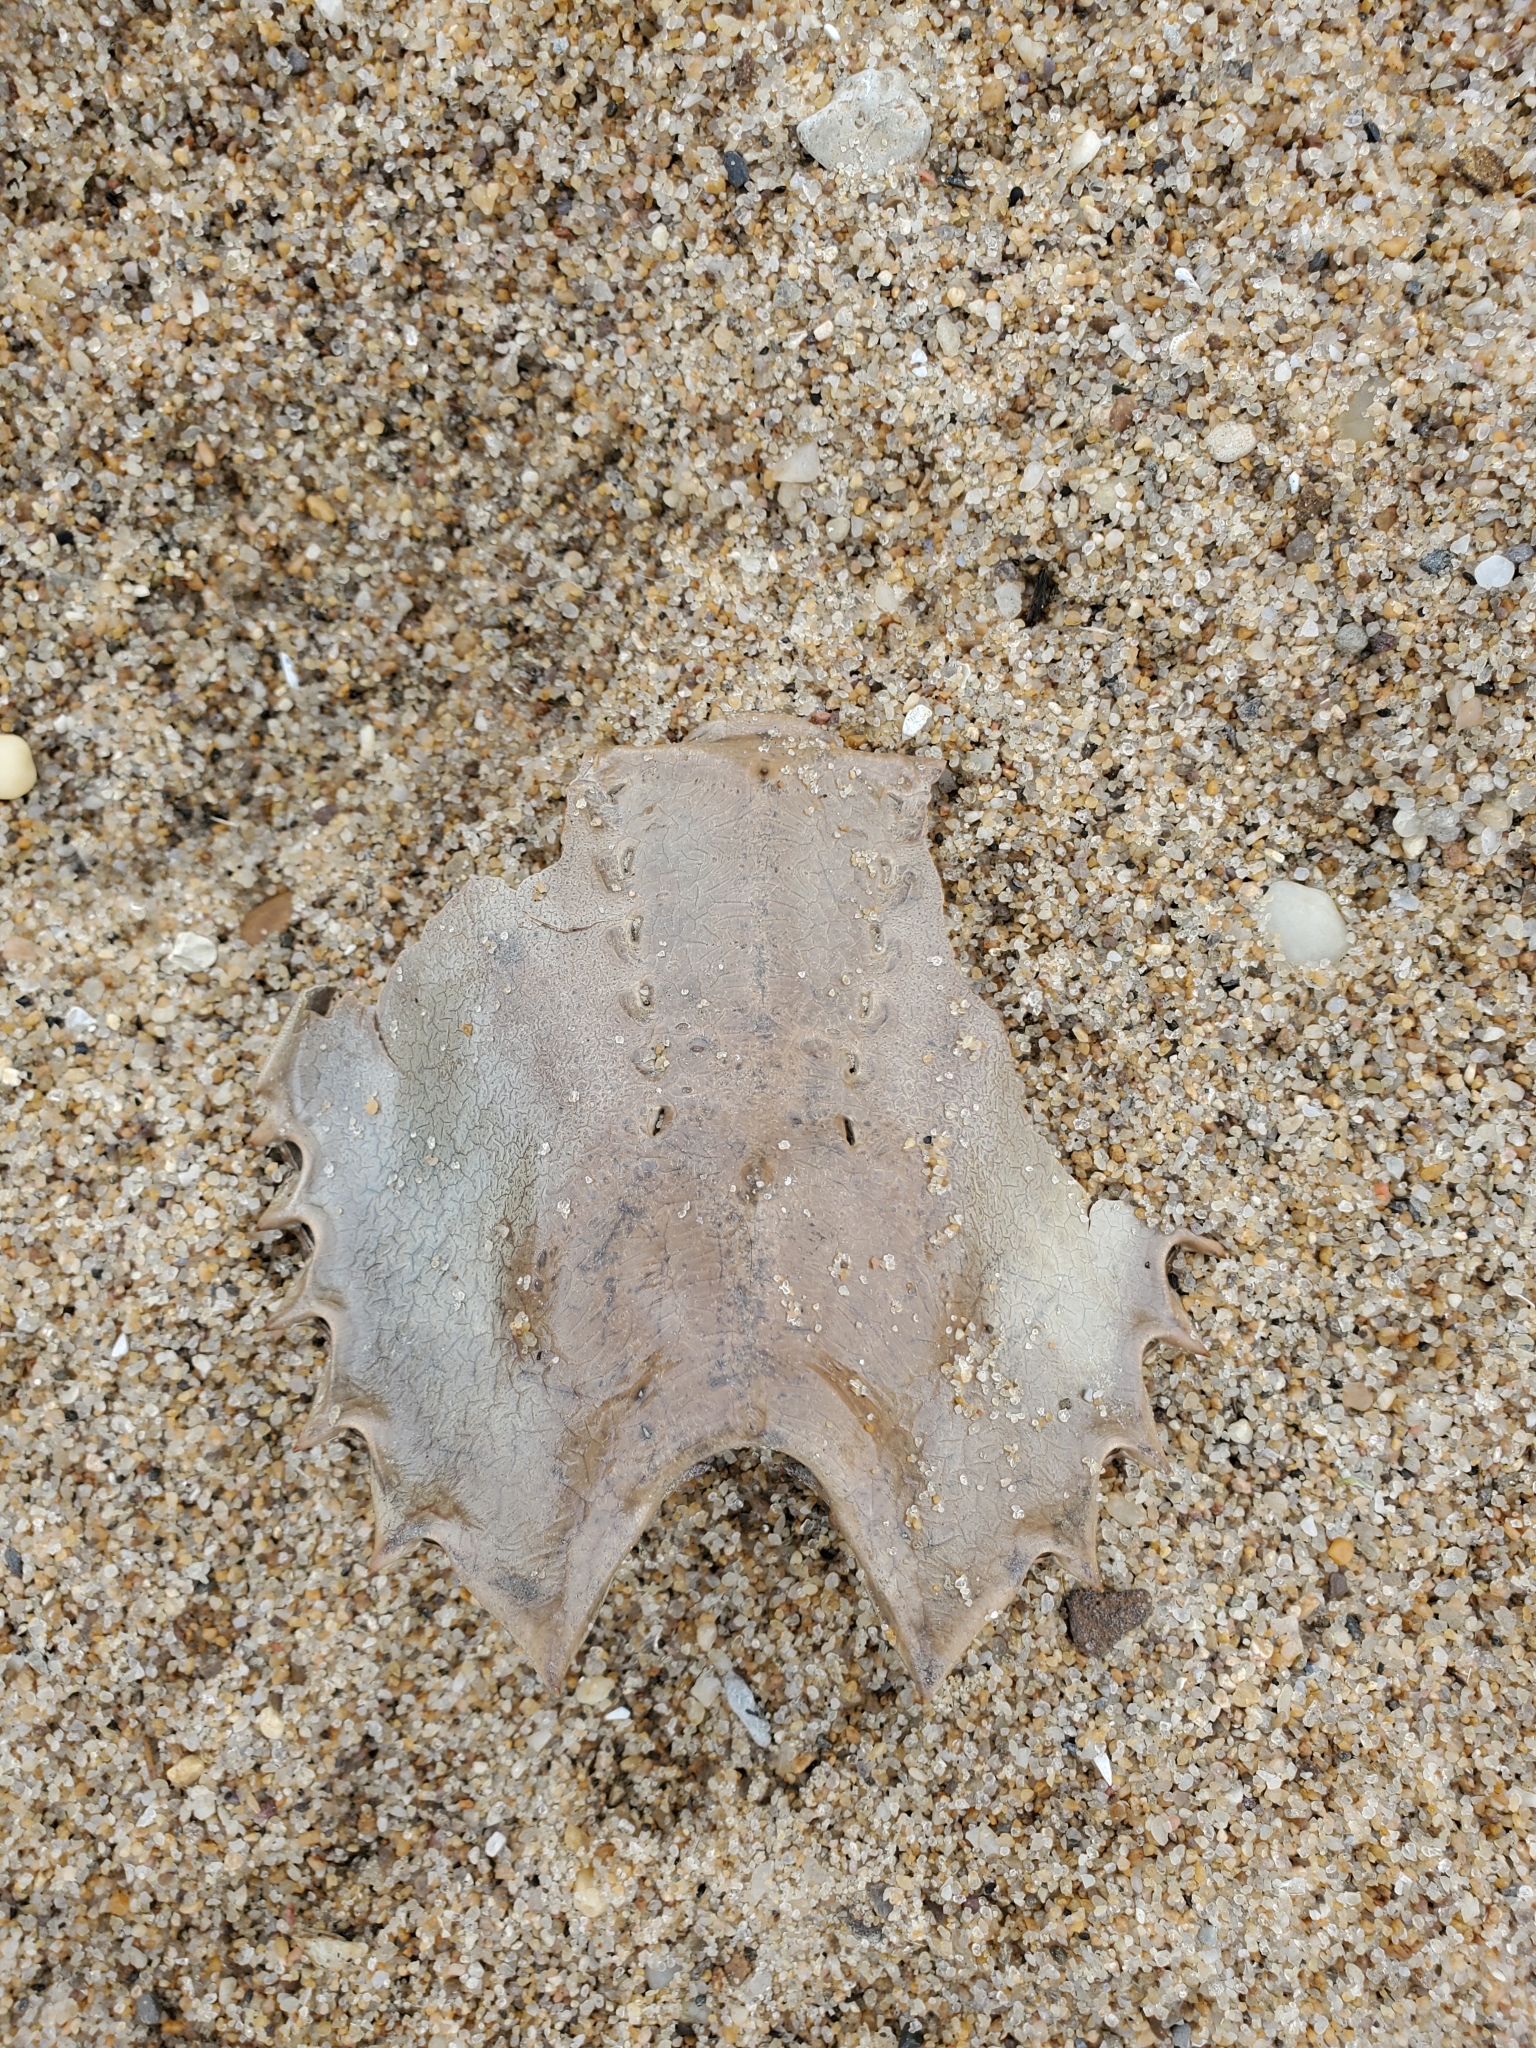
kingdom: Animalia
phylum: Arthropoda
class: Merostomata
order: Xiphosurida
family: Limulidae
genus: Limulus
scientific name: Limulus polyphemus
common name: Horseshoe crab
